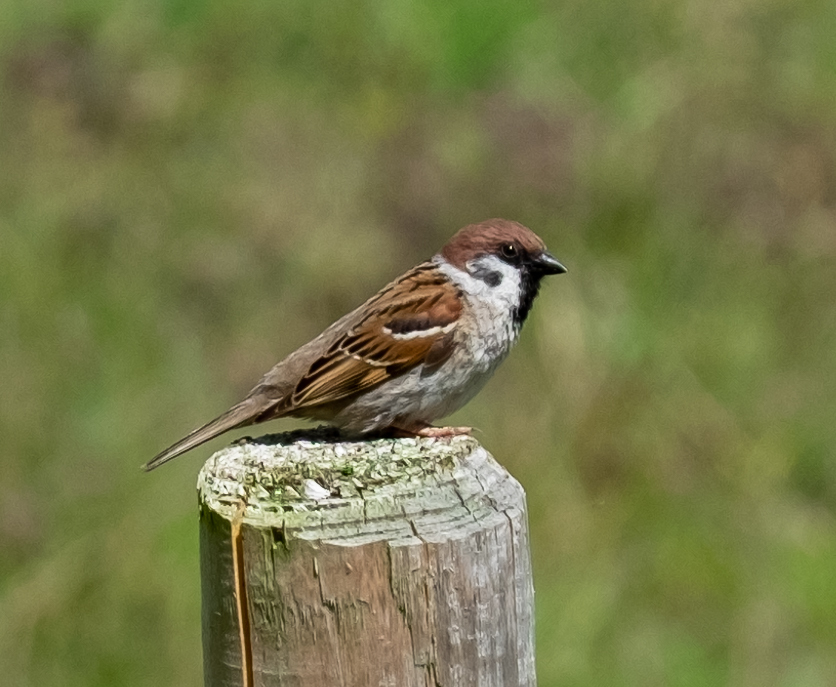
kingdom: Animalia
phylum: Chordata
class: Aves
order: Passeriformes
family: Passeridae
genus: Passer
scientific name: Passer montanus
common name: Eurasian tree sparrow
